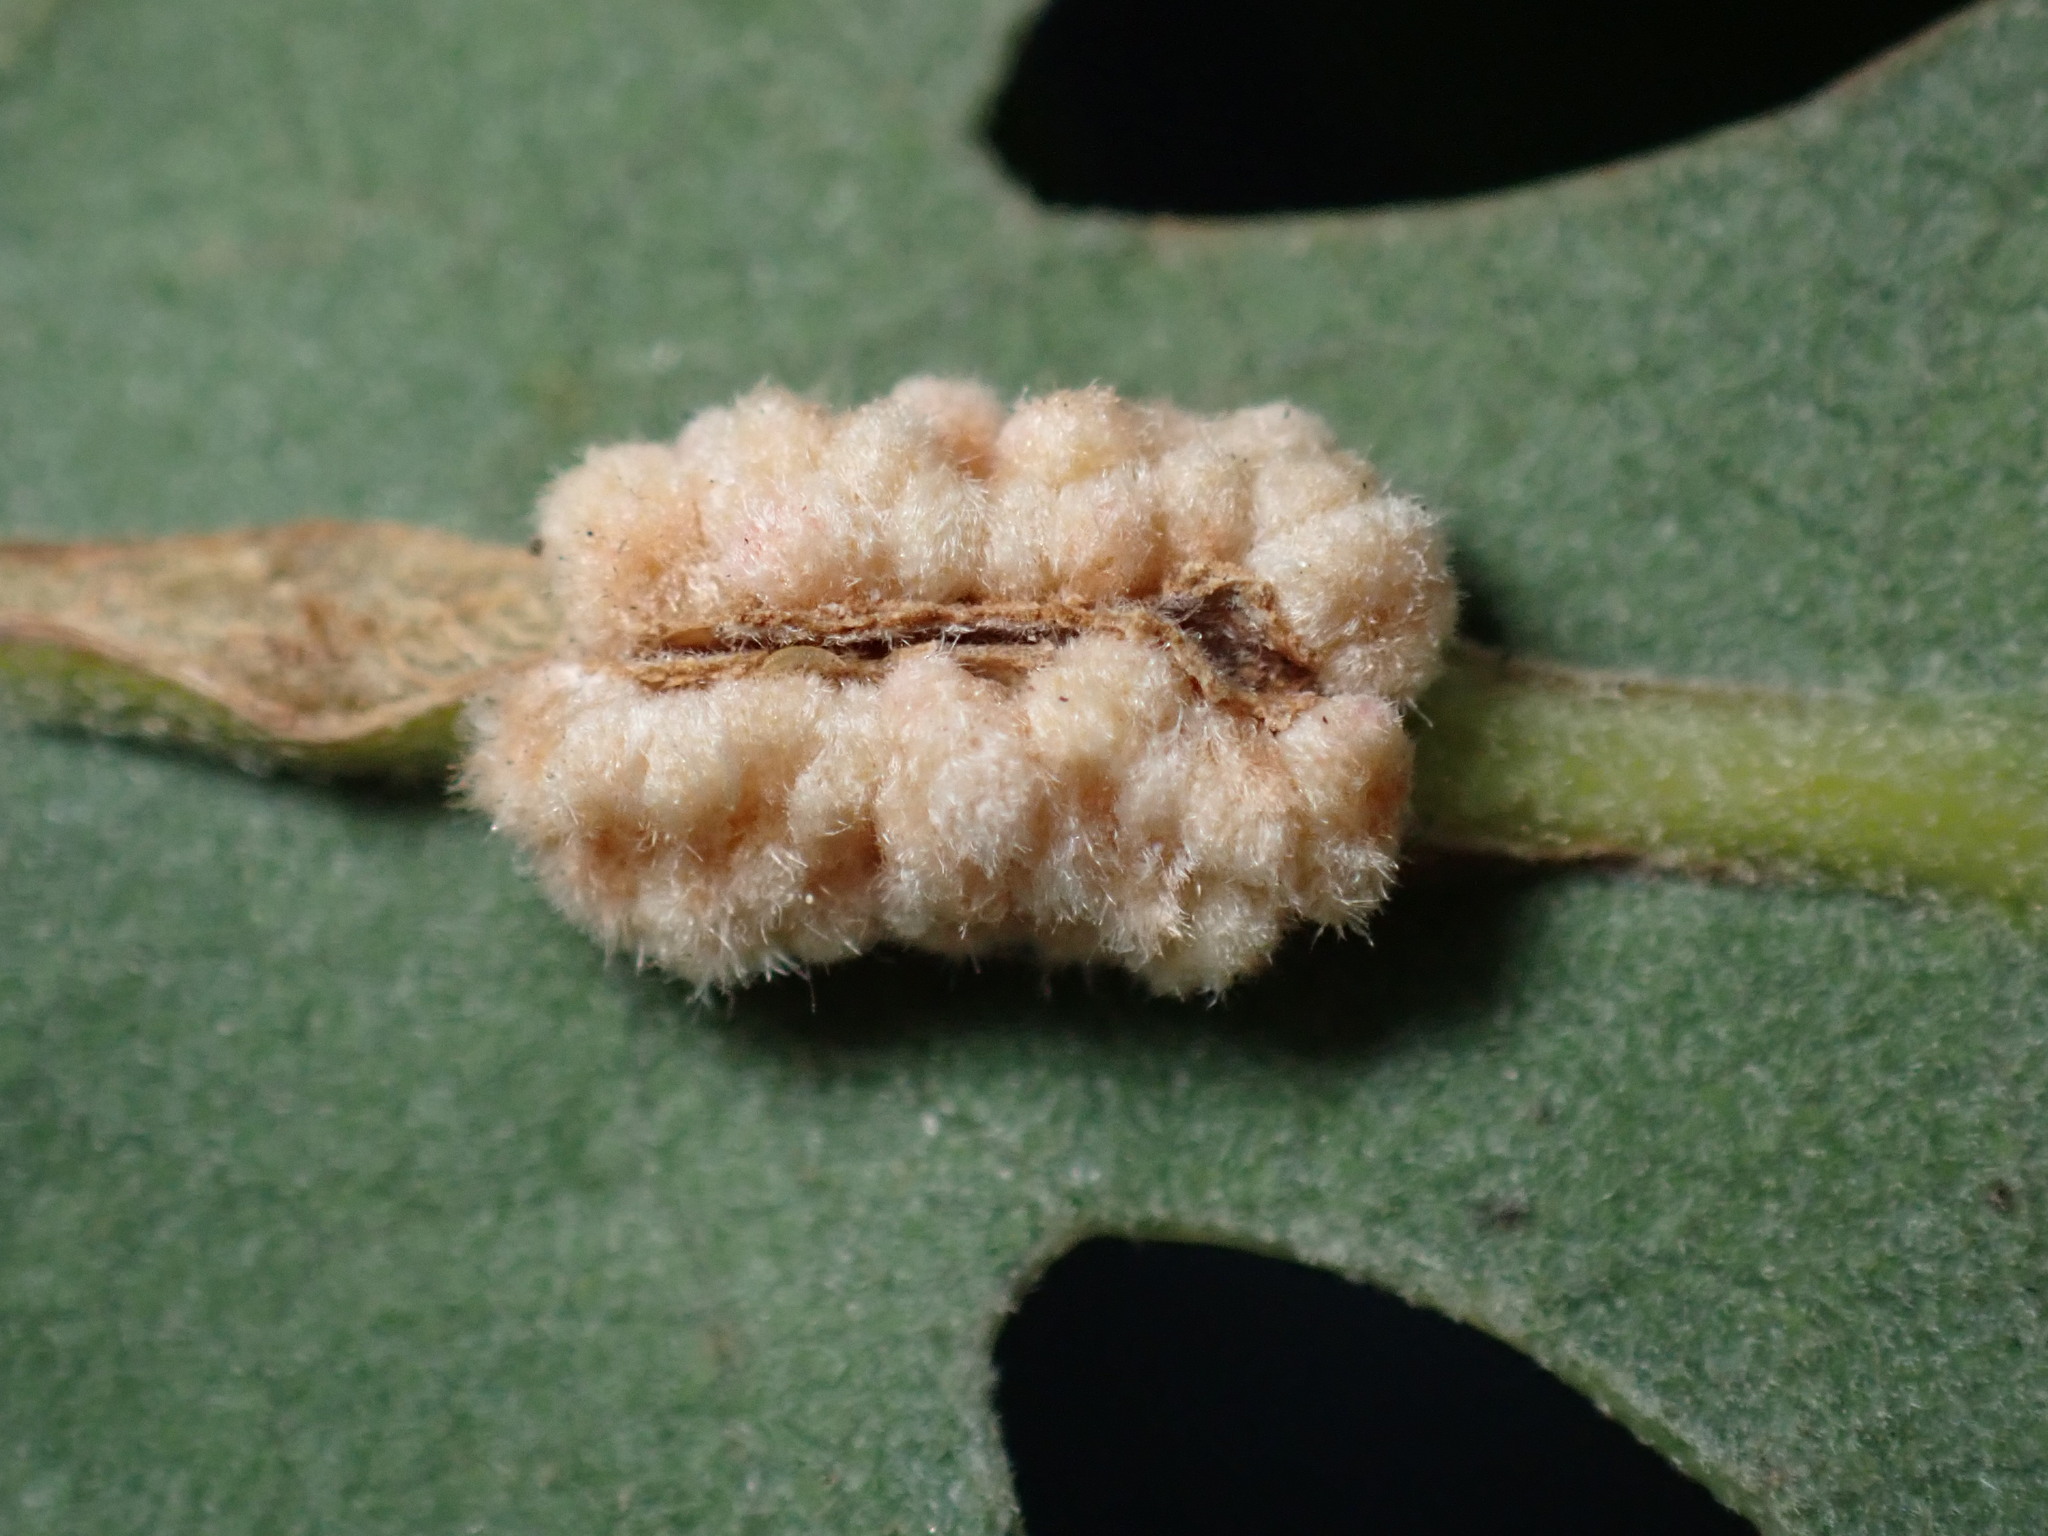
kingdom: Animalia
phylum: Arthropoda
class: Insecta
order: Hymenoptera
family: Cynipidae
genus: Andricus
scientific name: Andricus
